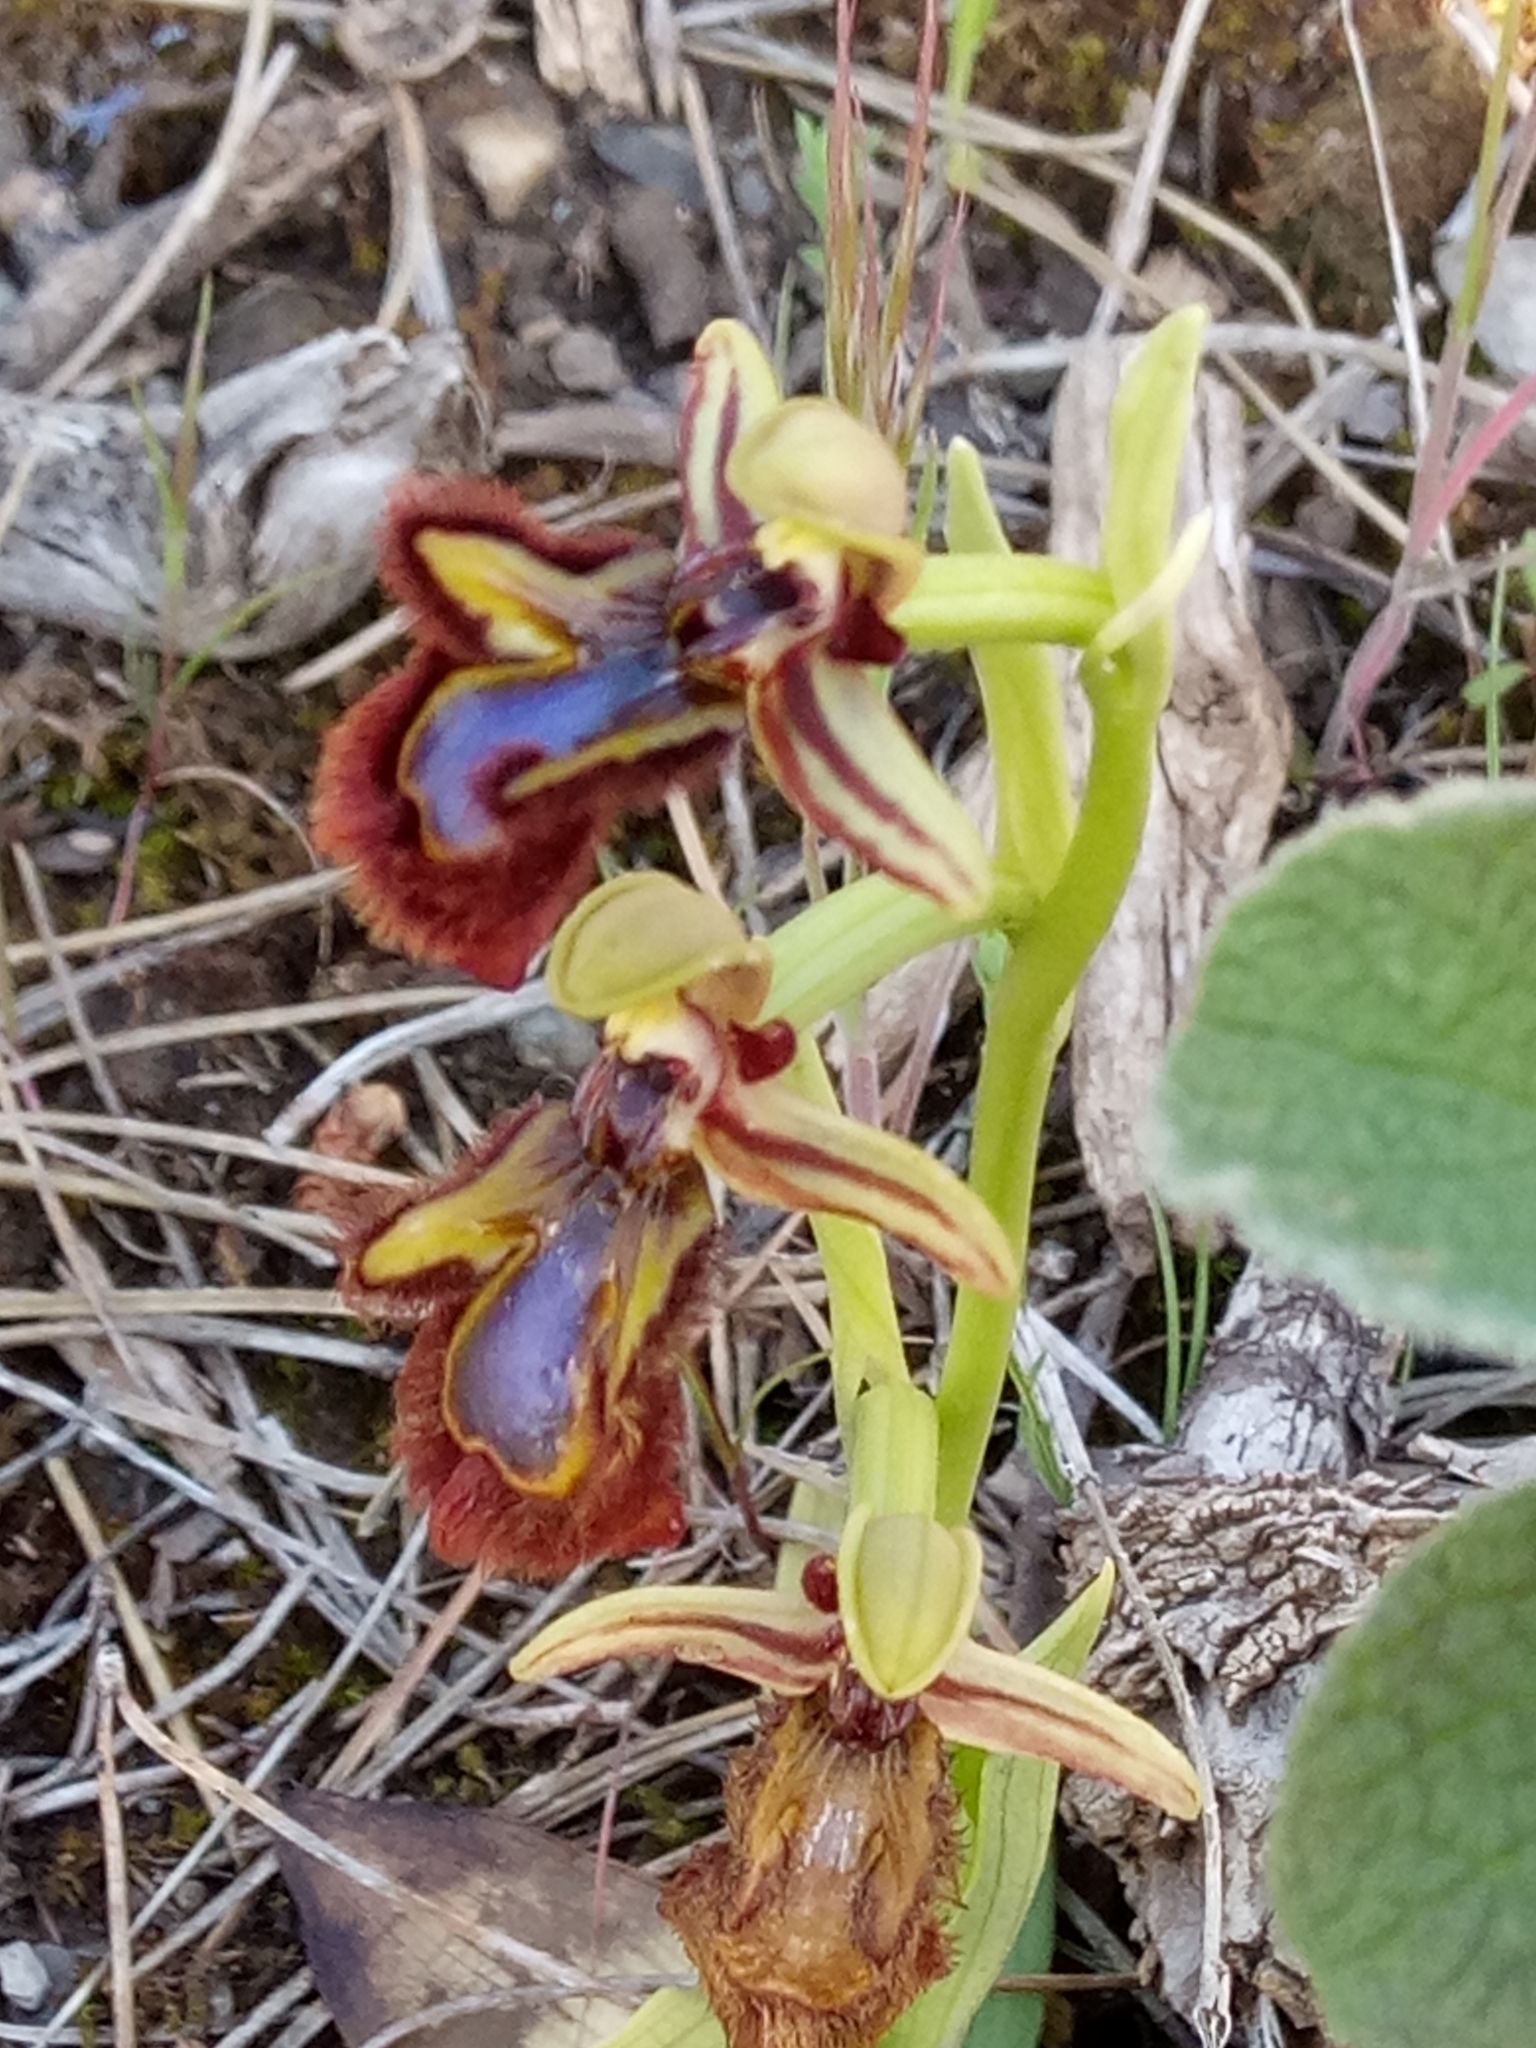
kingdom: Plantae
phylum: Tracheophyta
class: Liliopsida
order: Asparagales
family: Orchidaceae
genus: Ophrys
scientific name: Ophrys speculum
